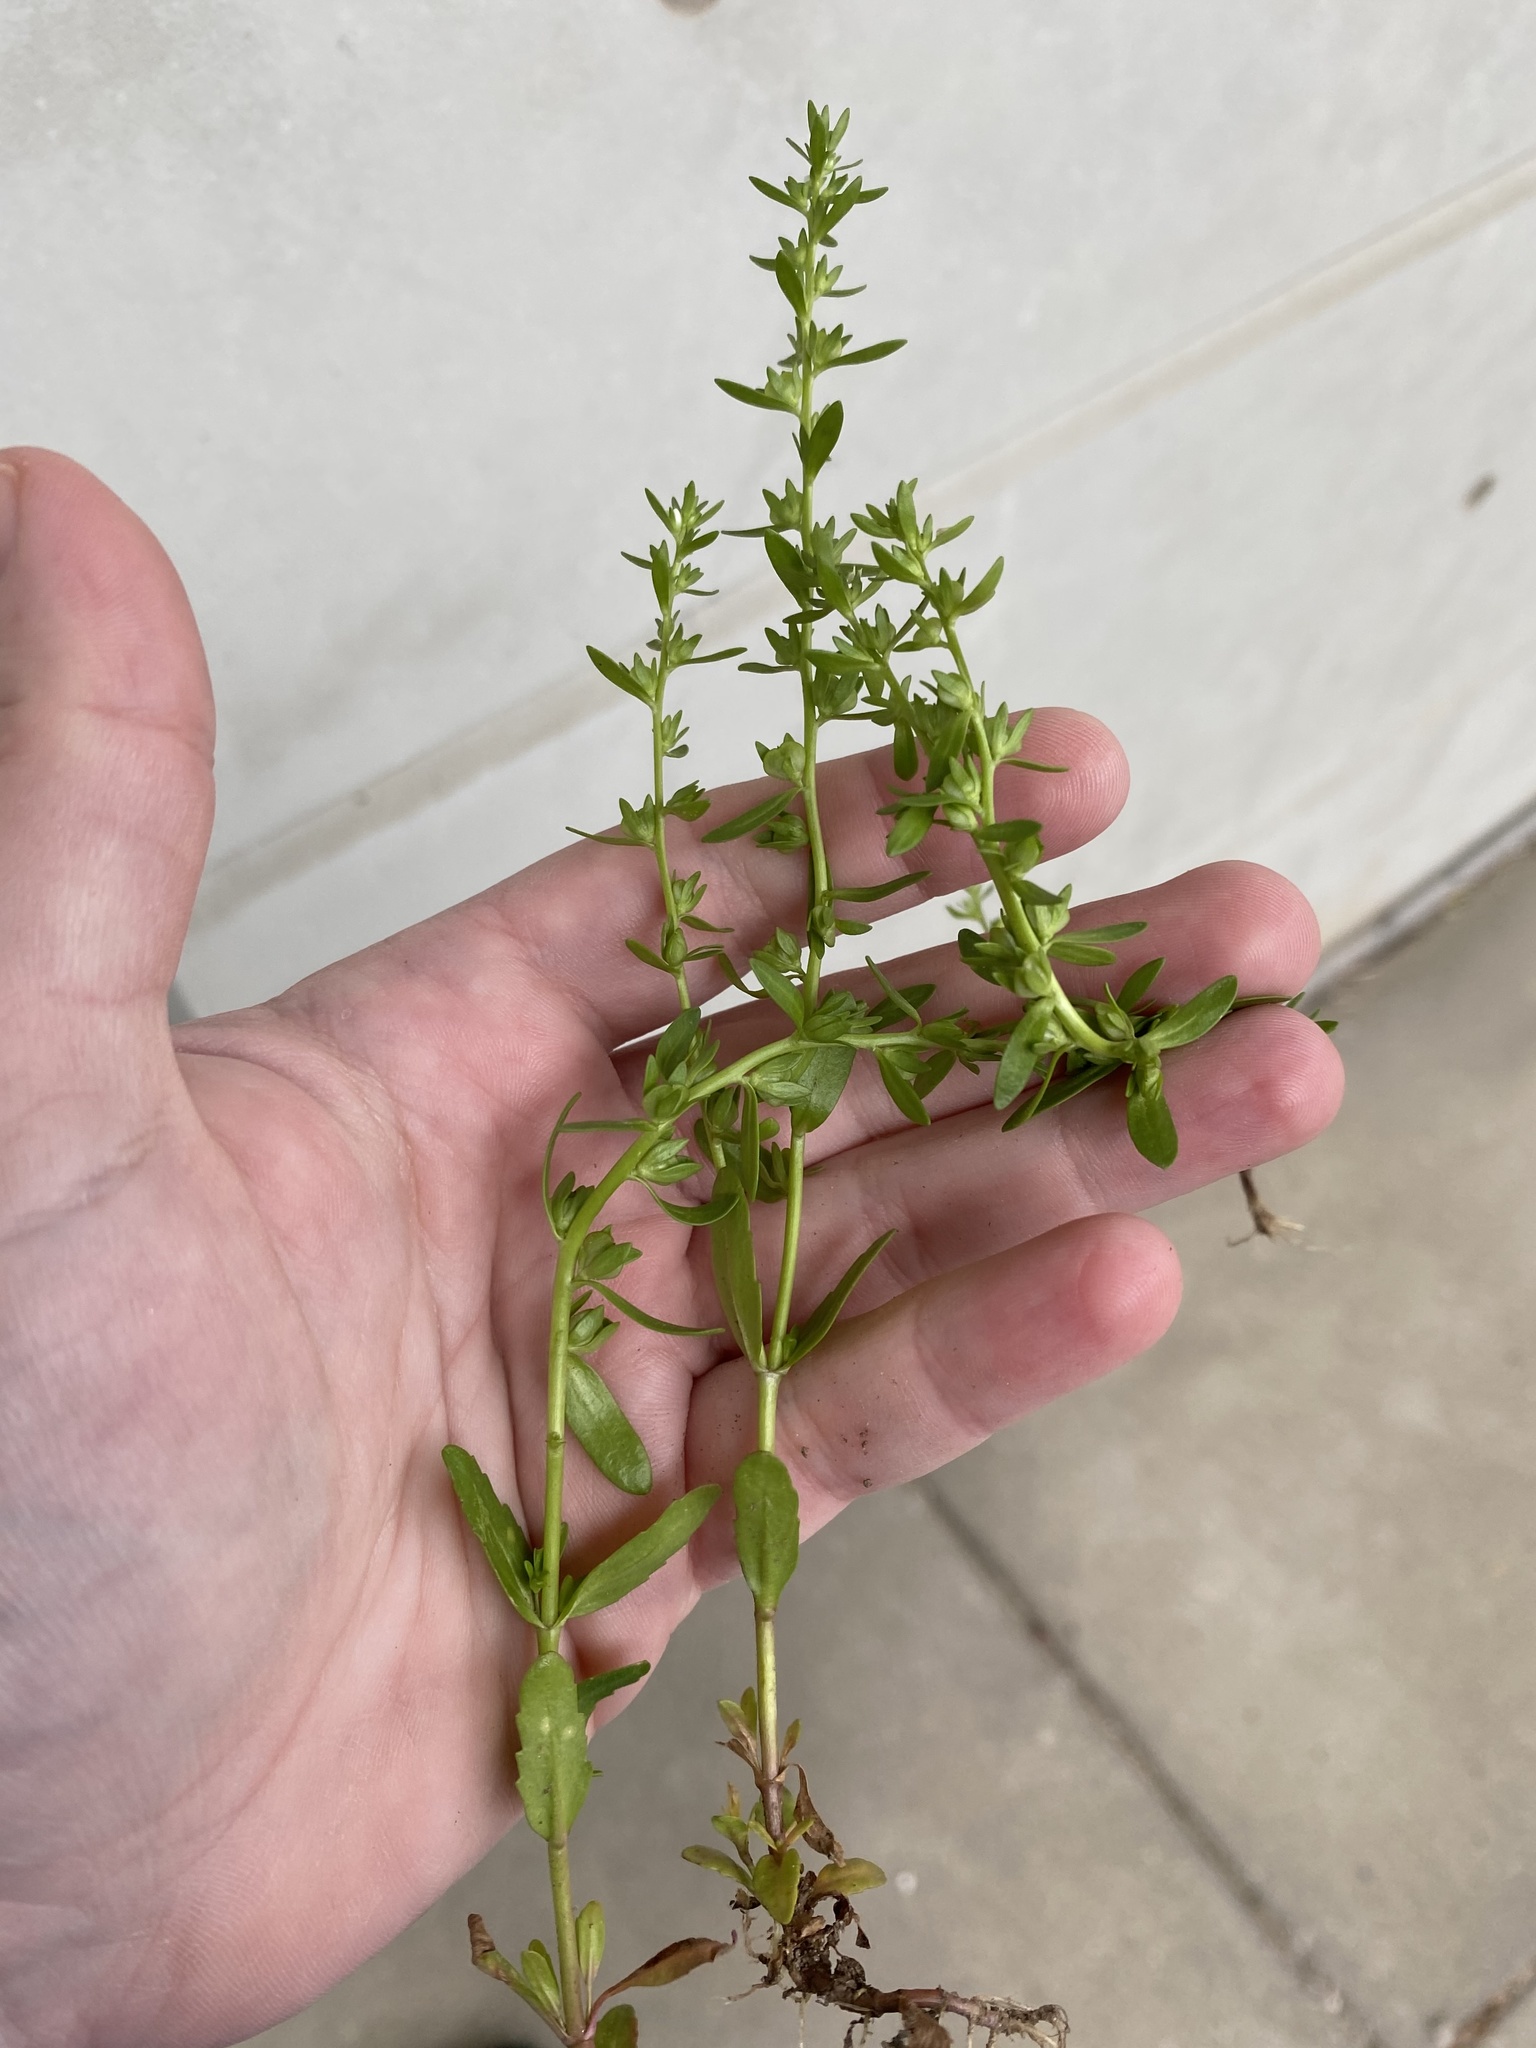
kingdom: Plantae
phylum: Tracheophyta
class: Magnoliopsida
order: Lamiales
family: Plantaginaceae
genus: Veronica
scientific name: Veronica peregrina
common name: Neckweed
